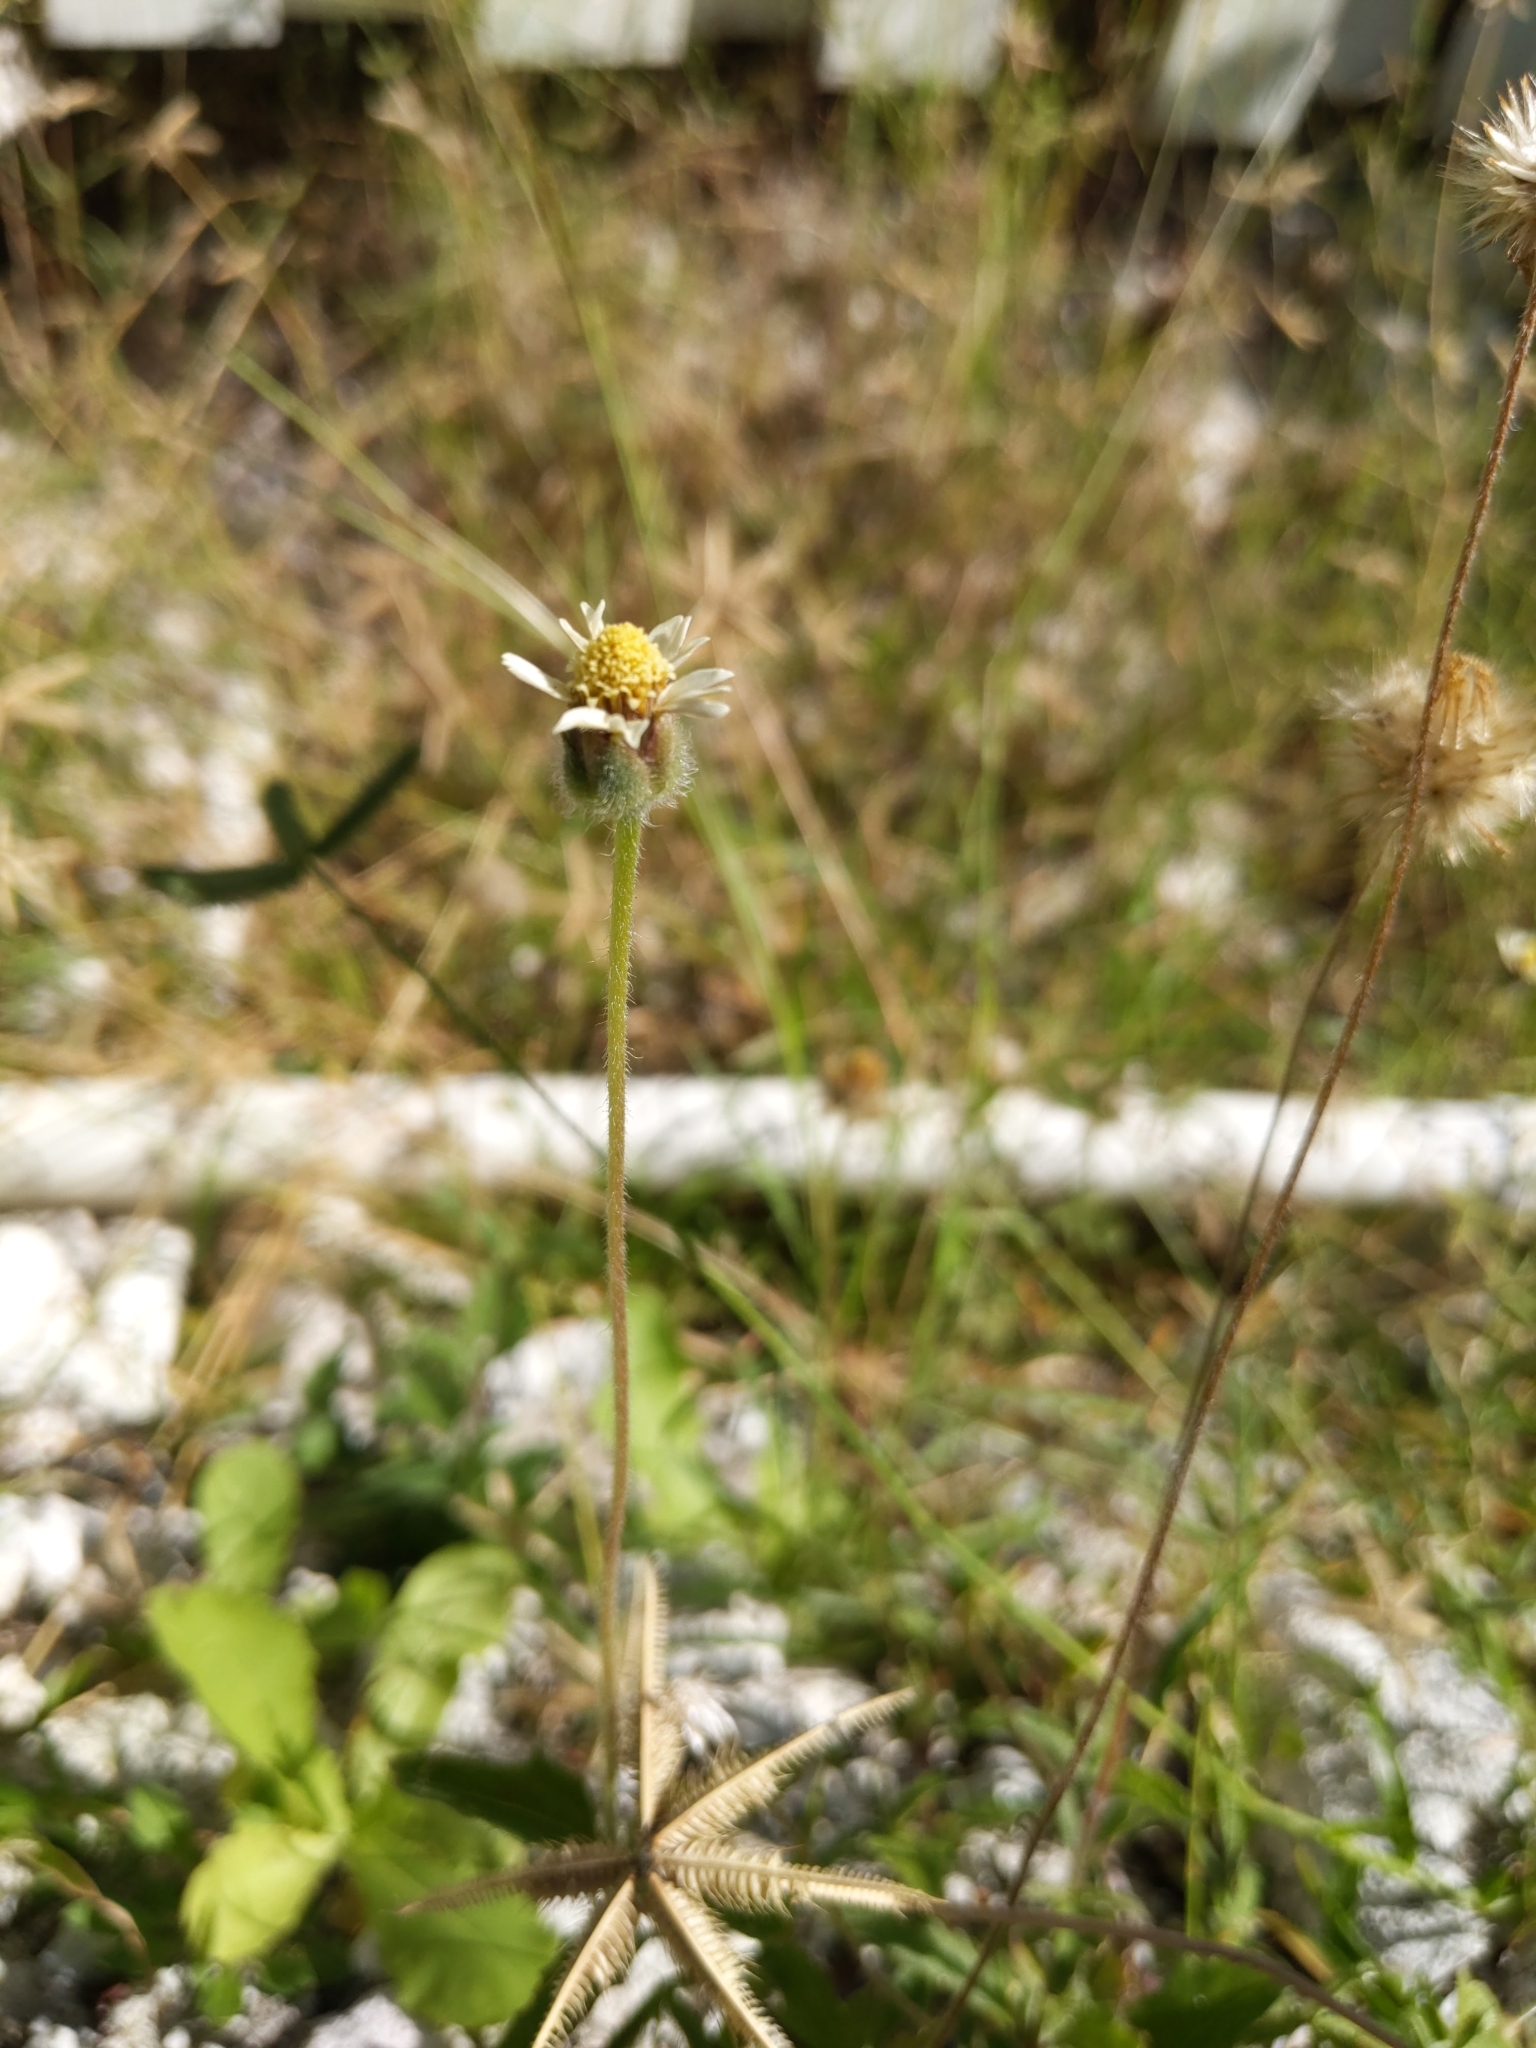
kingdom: Plantae
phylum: Tracheophyta
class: Magnoliopsida
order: Asterales
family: Asteraceae
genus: Tridax
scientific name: Tridax procumbens
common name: Coatbuttons
